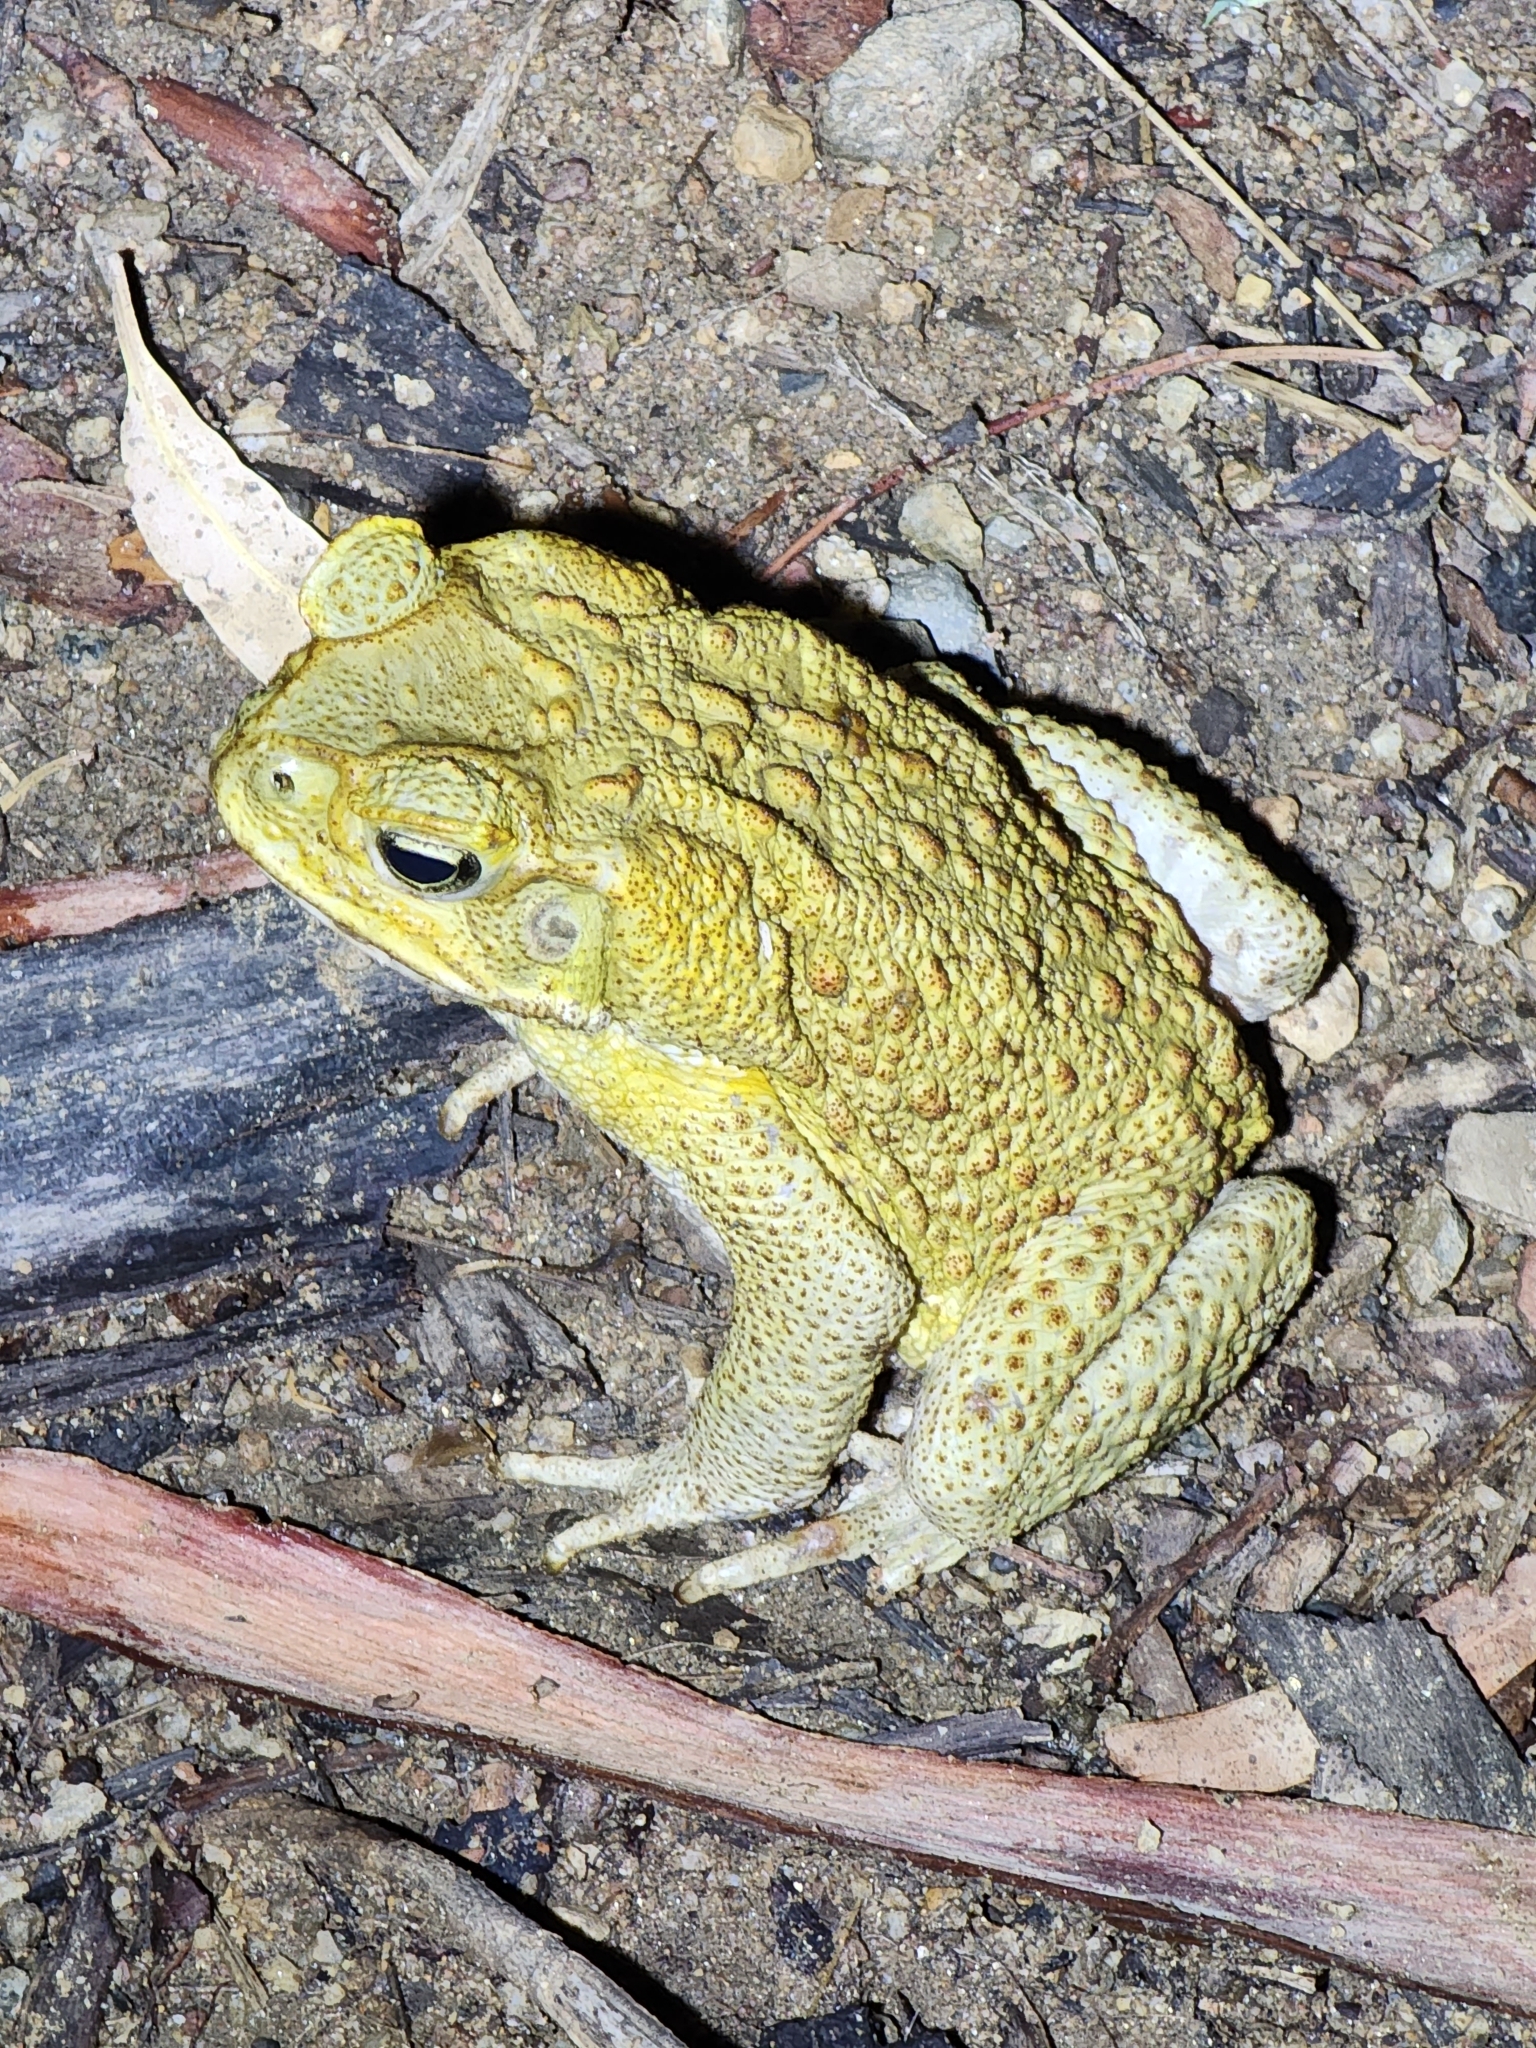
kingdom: Animalia
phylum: Chordata
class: Amphibia
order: Anura
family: Bufonidae
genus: Rhinella
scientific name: Rhinella marina
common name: Cane toad
